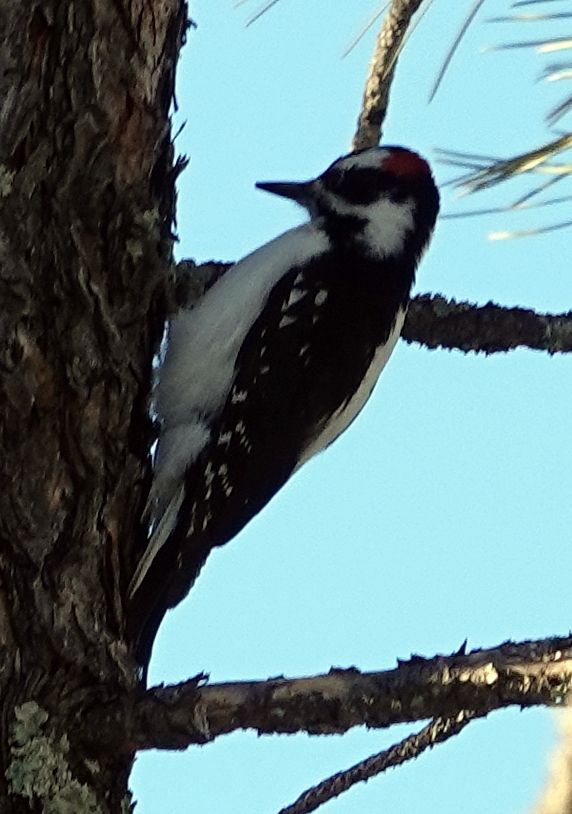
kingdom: Animalia
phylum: Chordata
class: Aves
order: Piciformes
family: Picidae
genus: Leuconotopicus
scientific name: Leuconotopicus villosus
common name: Hairy woodpecker
